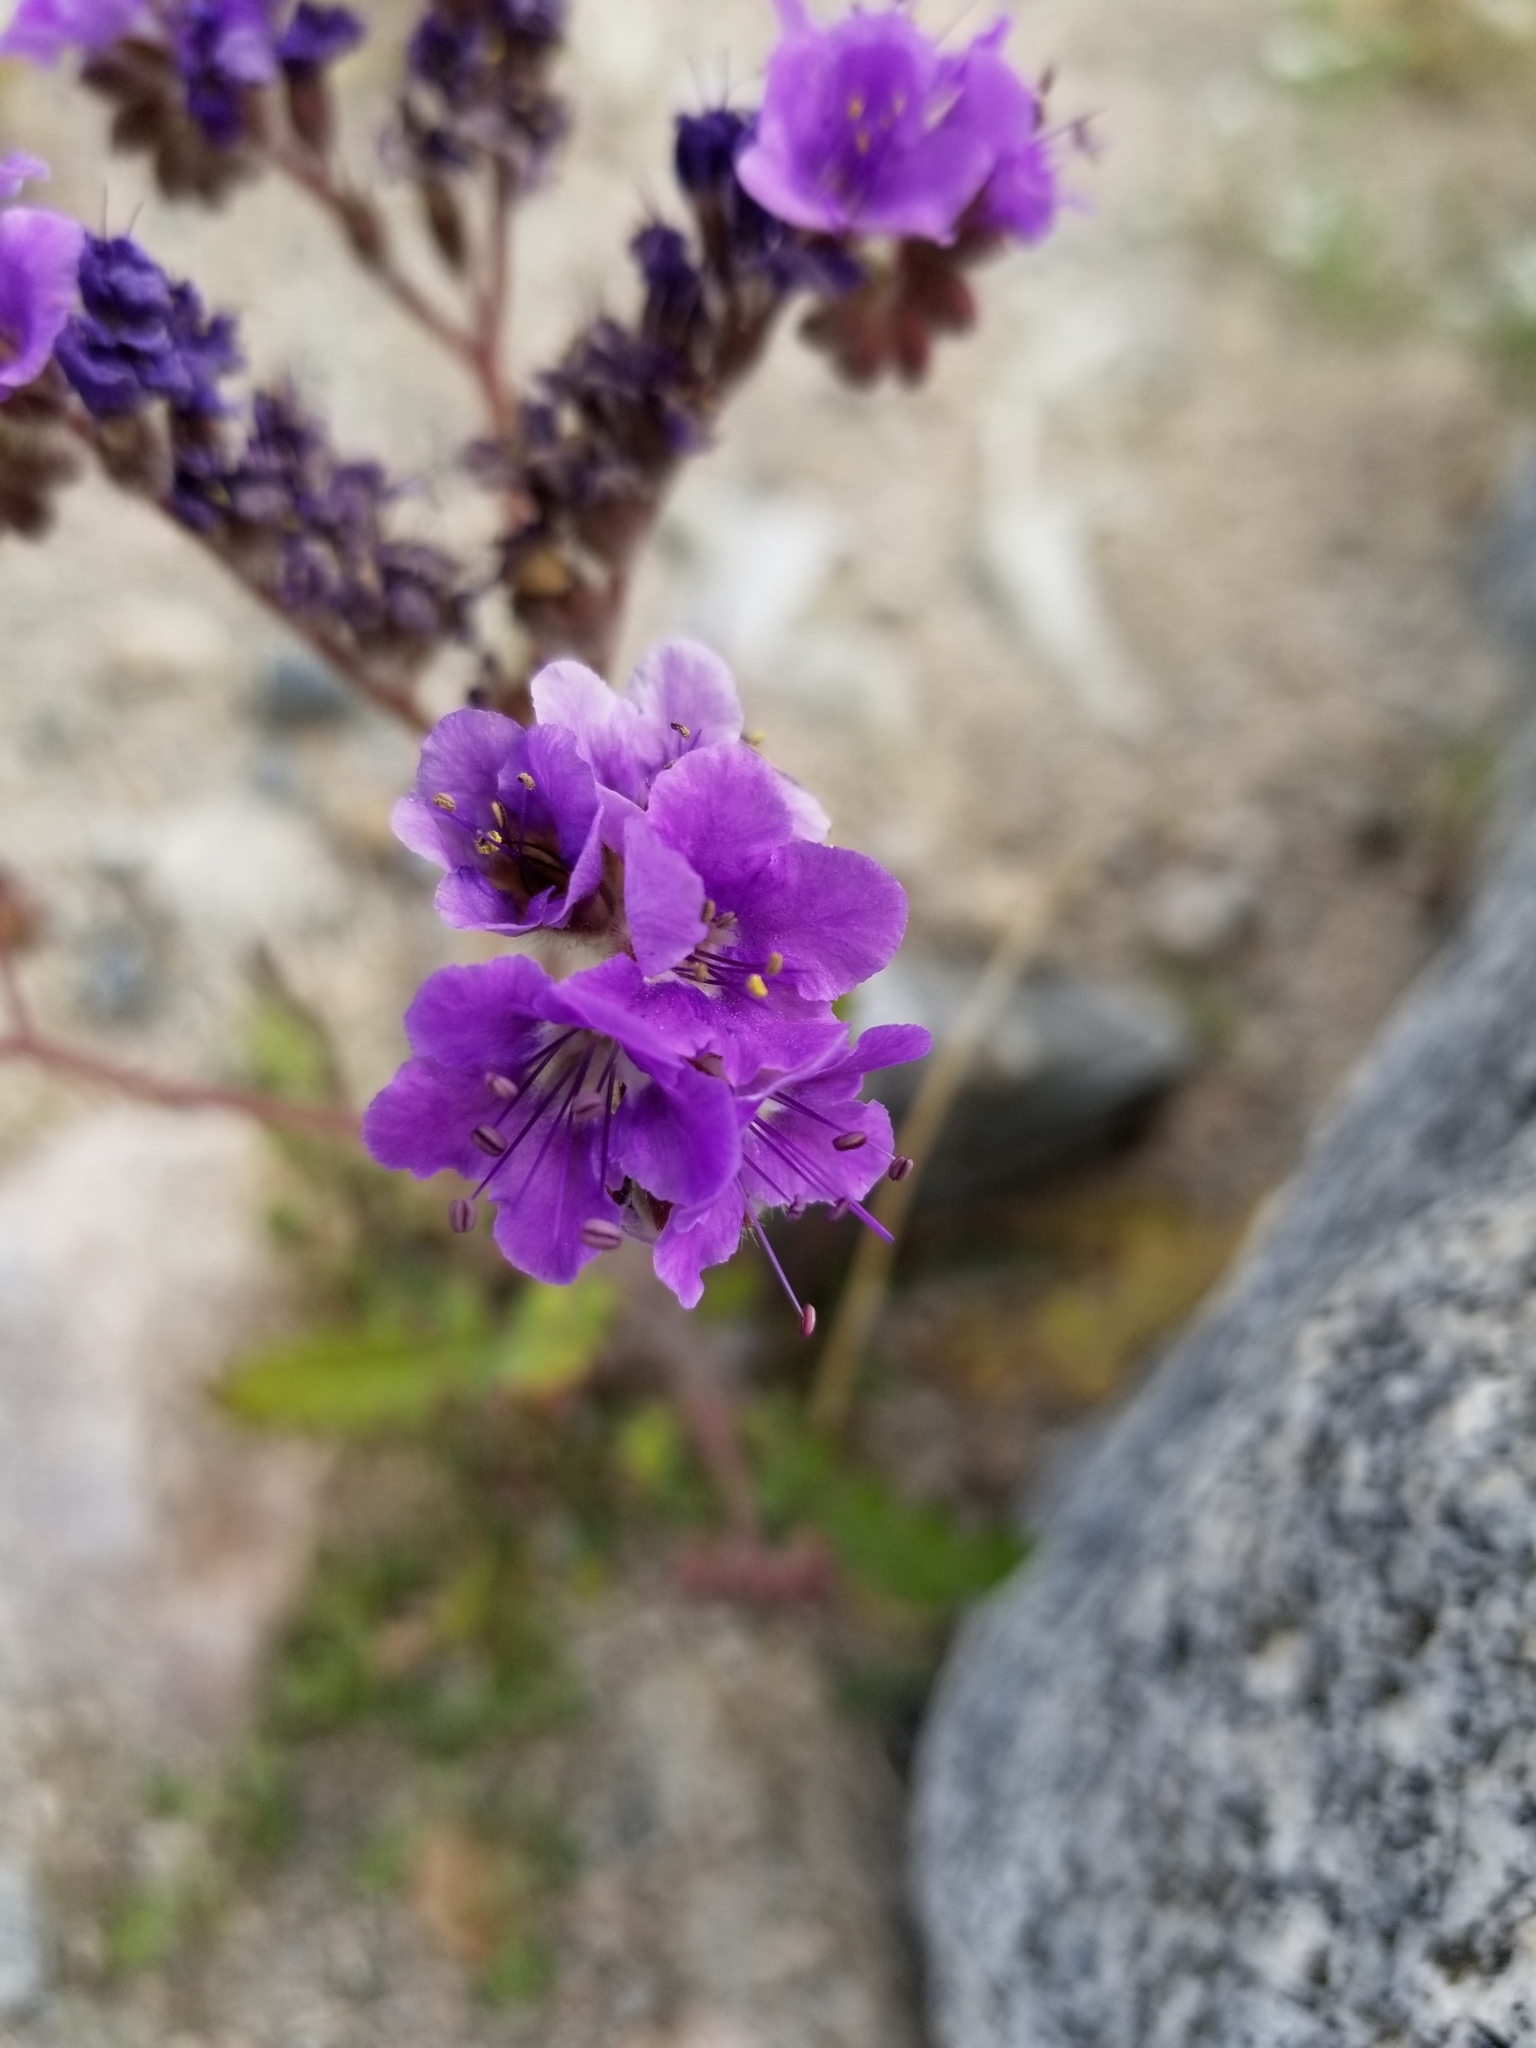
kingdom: Plantae
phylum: Tracheophyta
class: Magnoliopsida
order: Boraginales
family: Hydrophyllaceae
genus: Phacelia
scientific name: Phacelia crenulata
